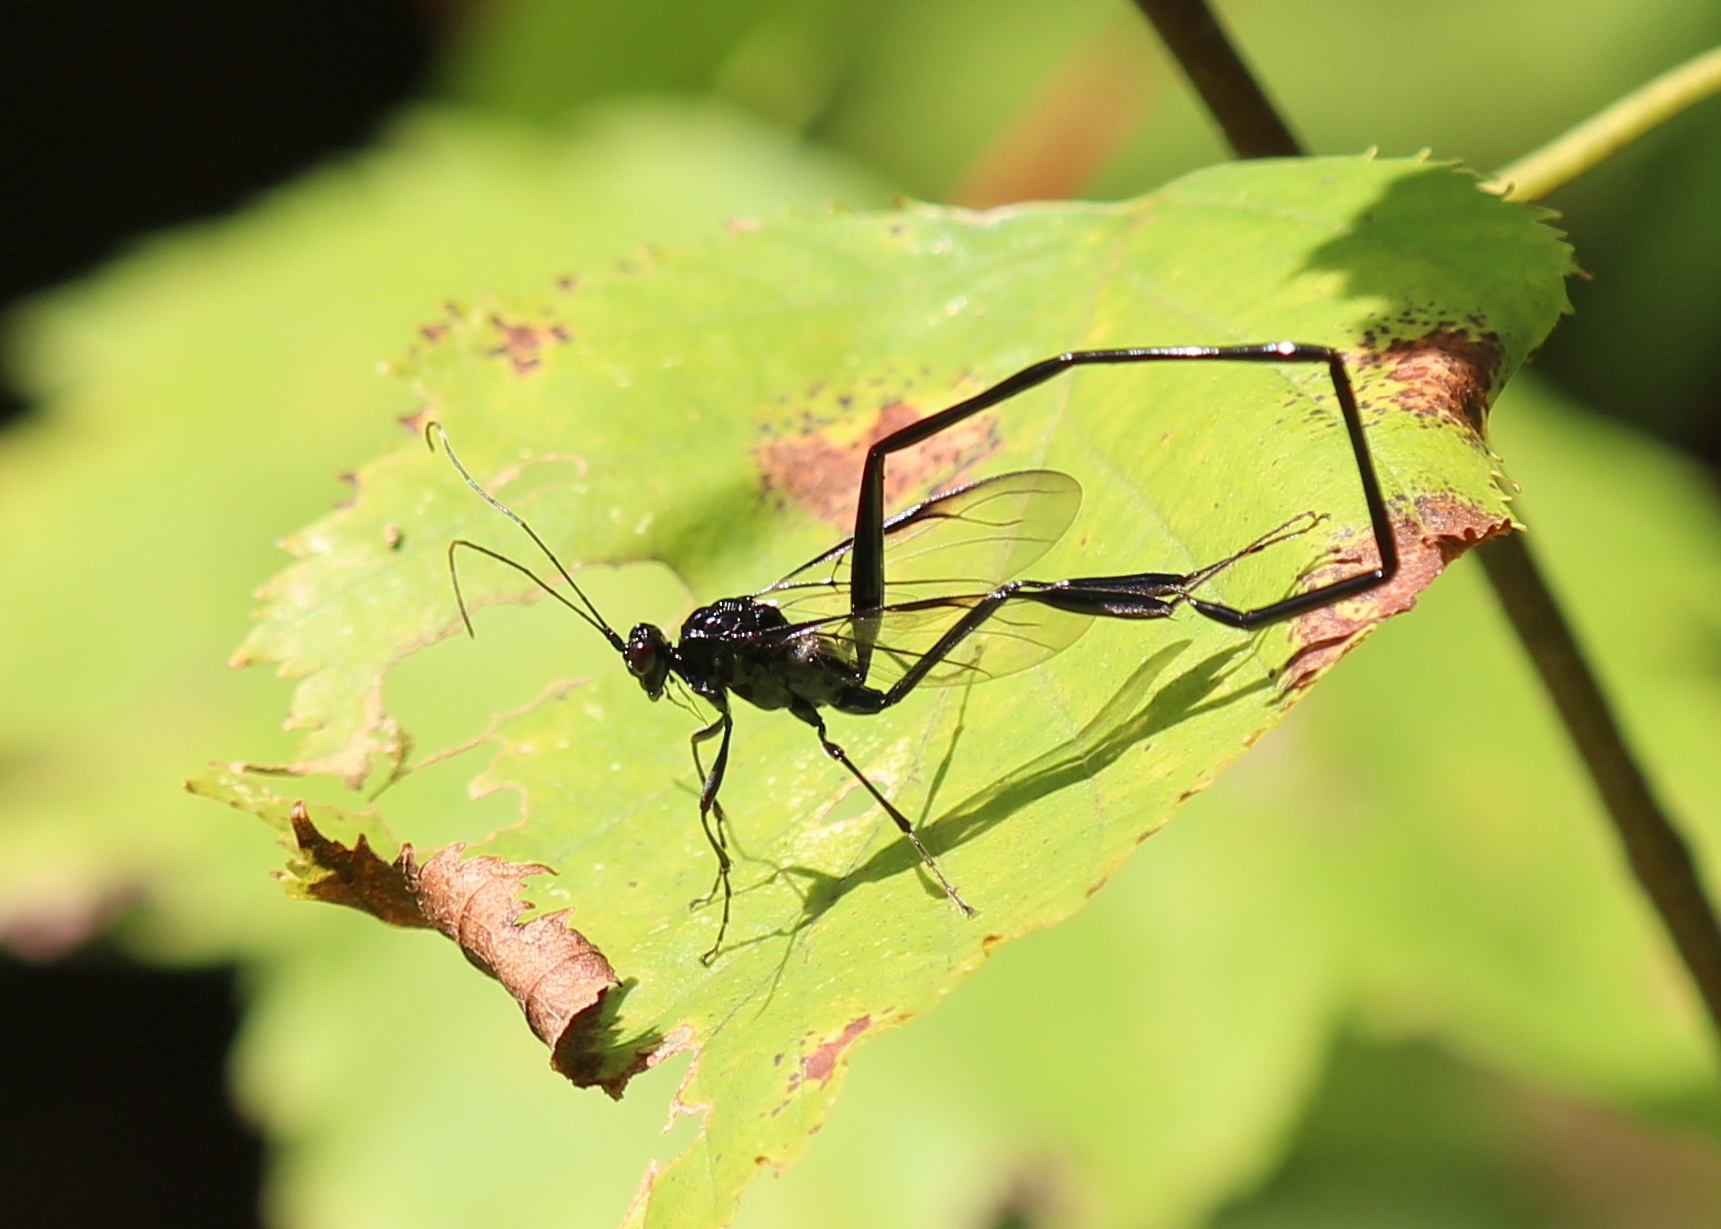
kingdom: Animalia
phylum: Arthropoda
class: Insecta
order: Hymenoptera
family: Pelecinidae
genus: Pelecinus
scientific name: Pelecinus polyturator
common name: American pelecinid wasp
